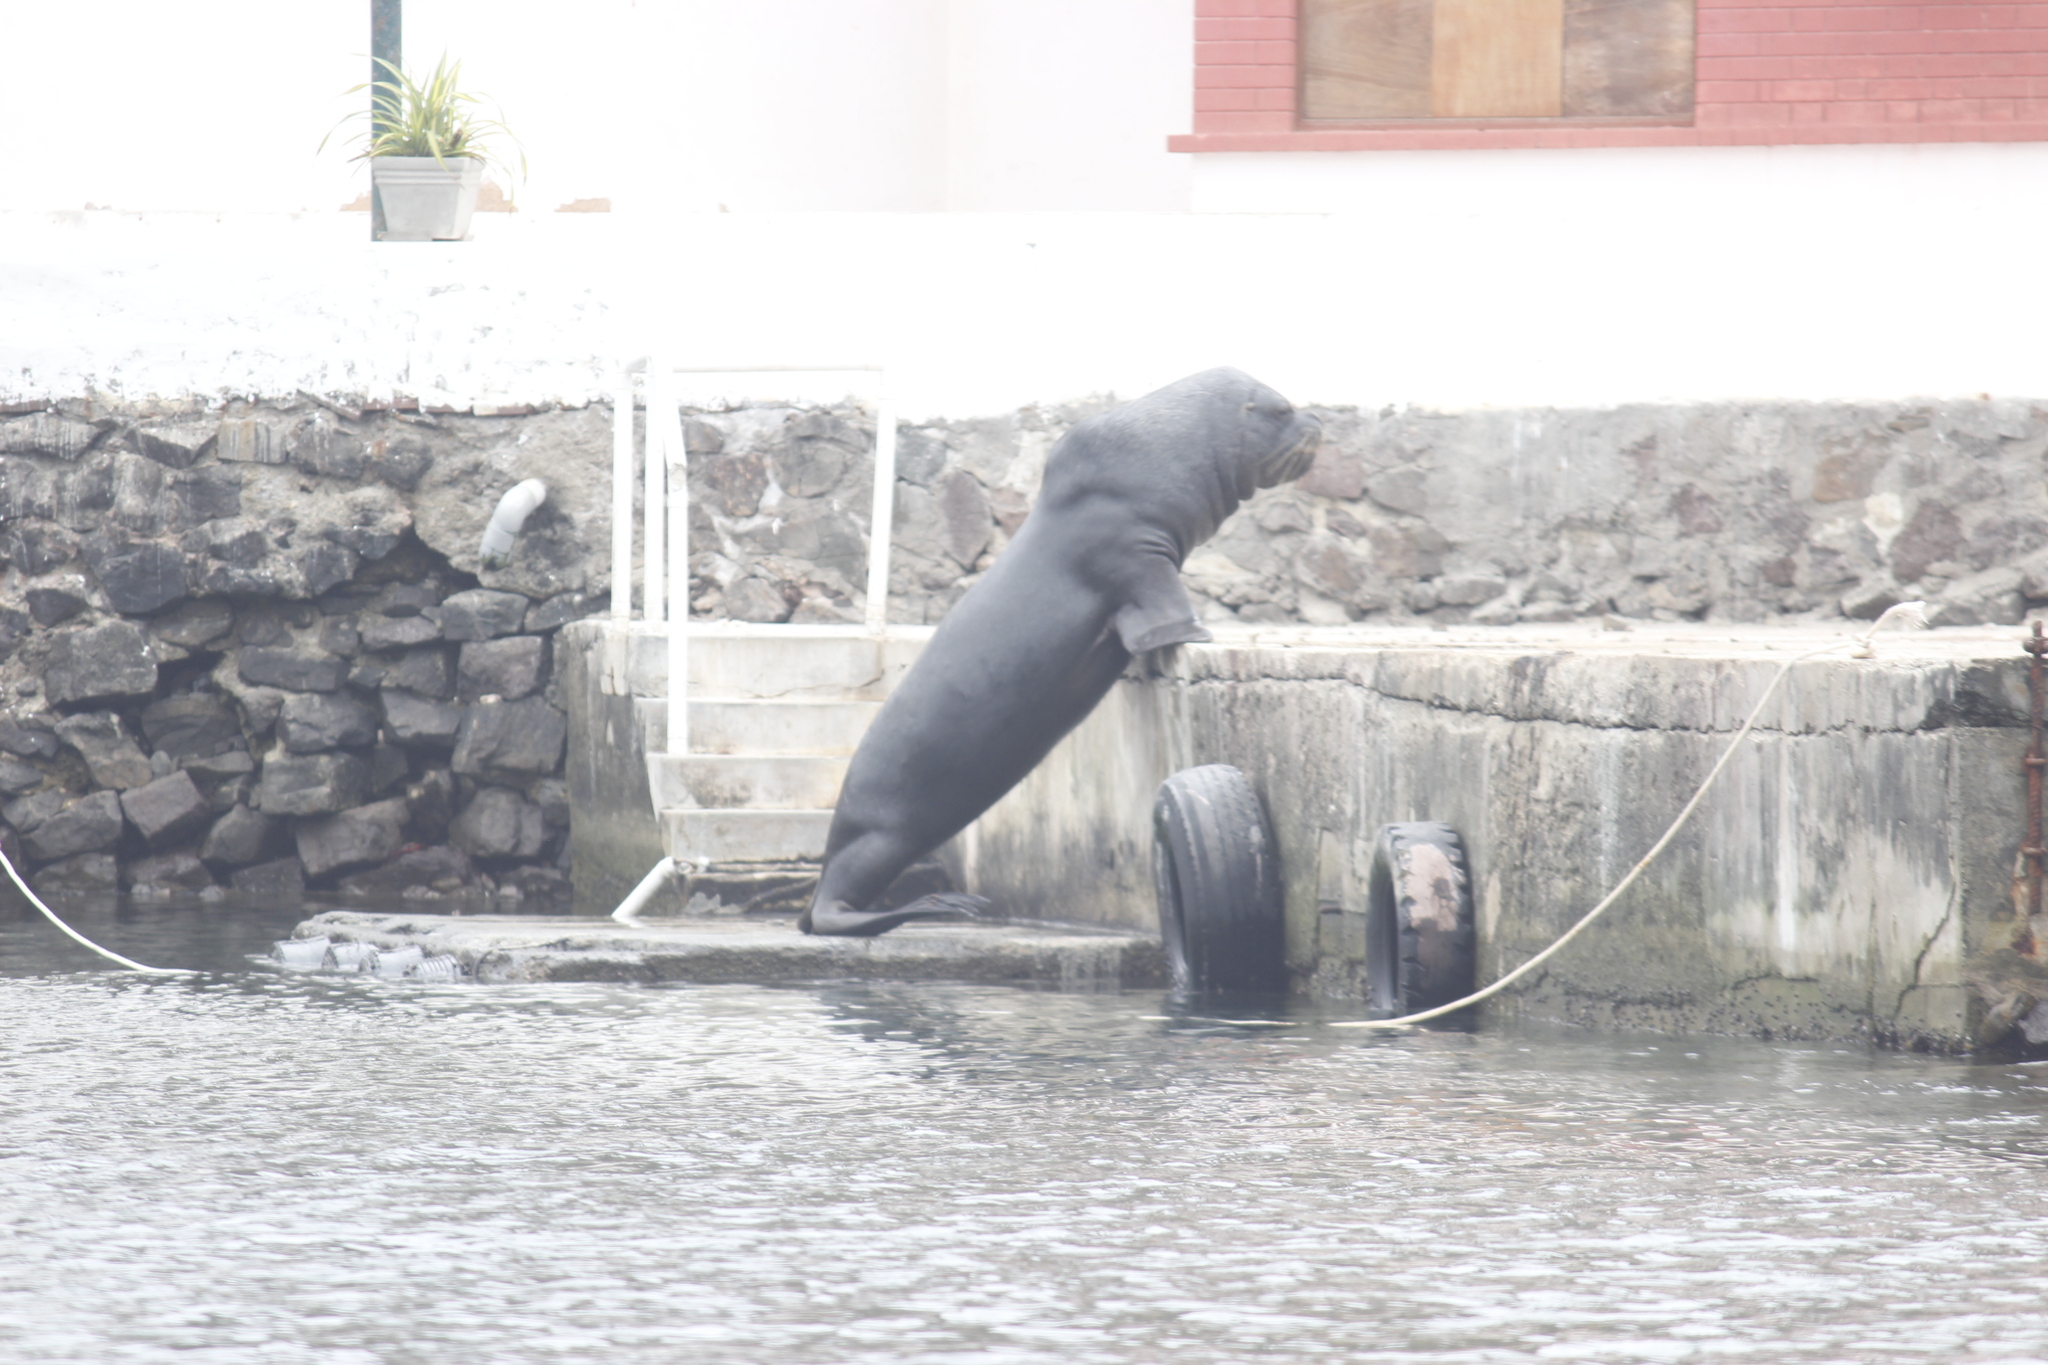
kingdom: Animalia
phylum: Chordata
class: Mammalia
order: Carnivora
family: Otariidae
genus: Otaria
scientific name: Otaria byronia
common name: South american sea lion
